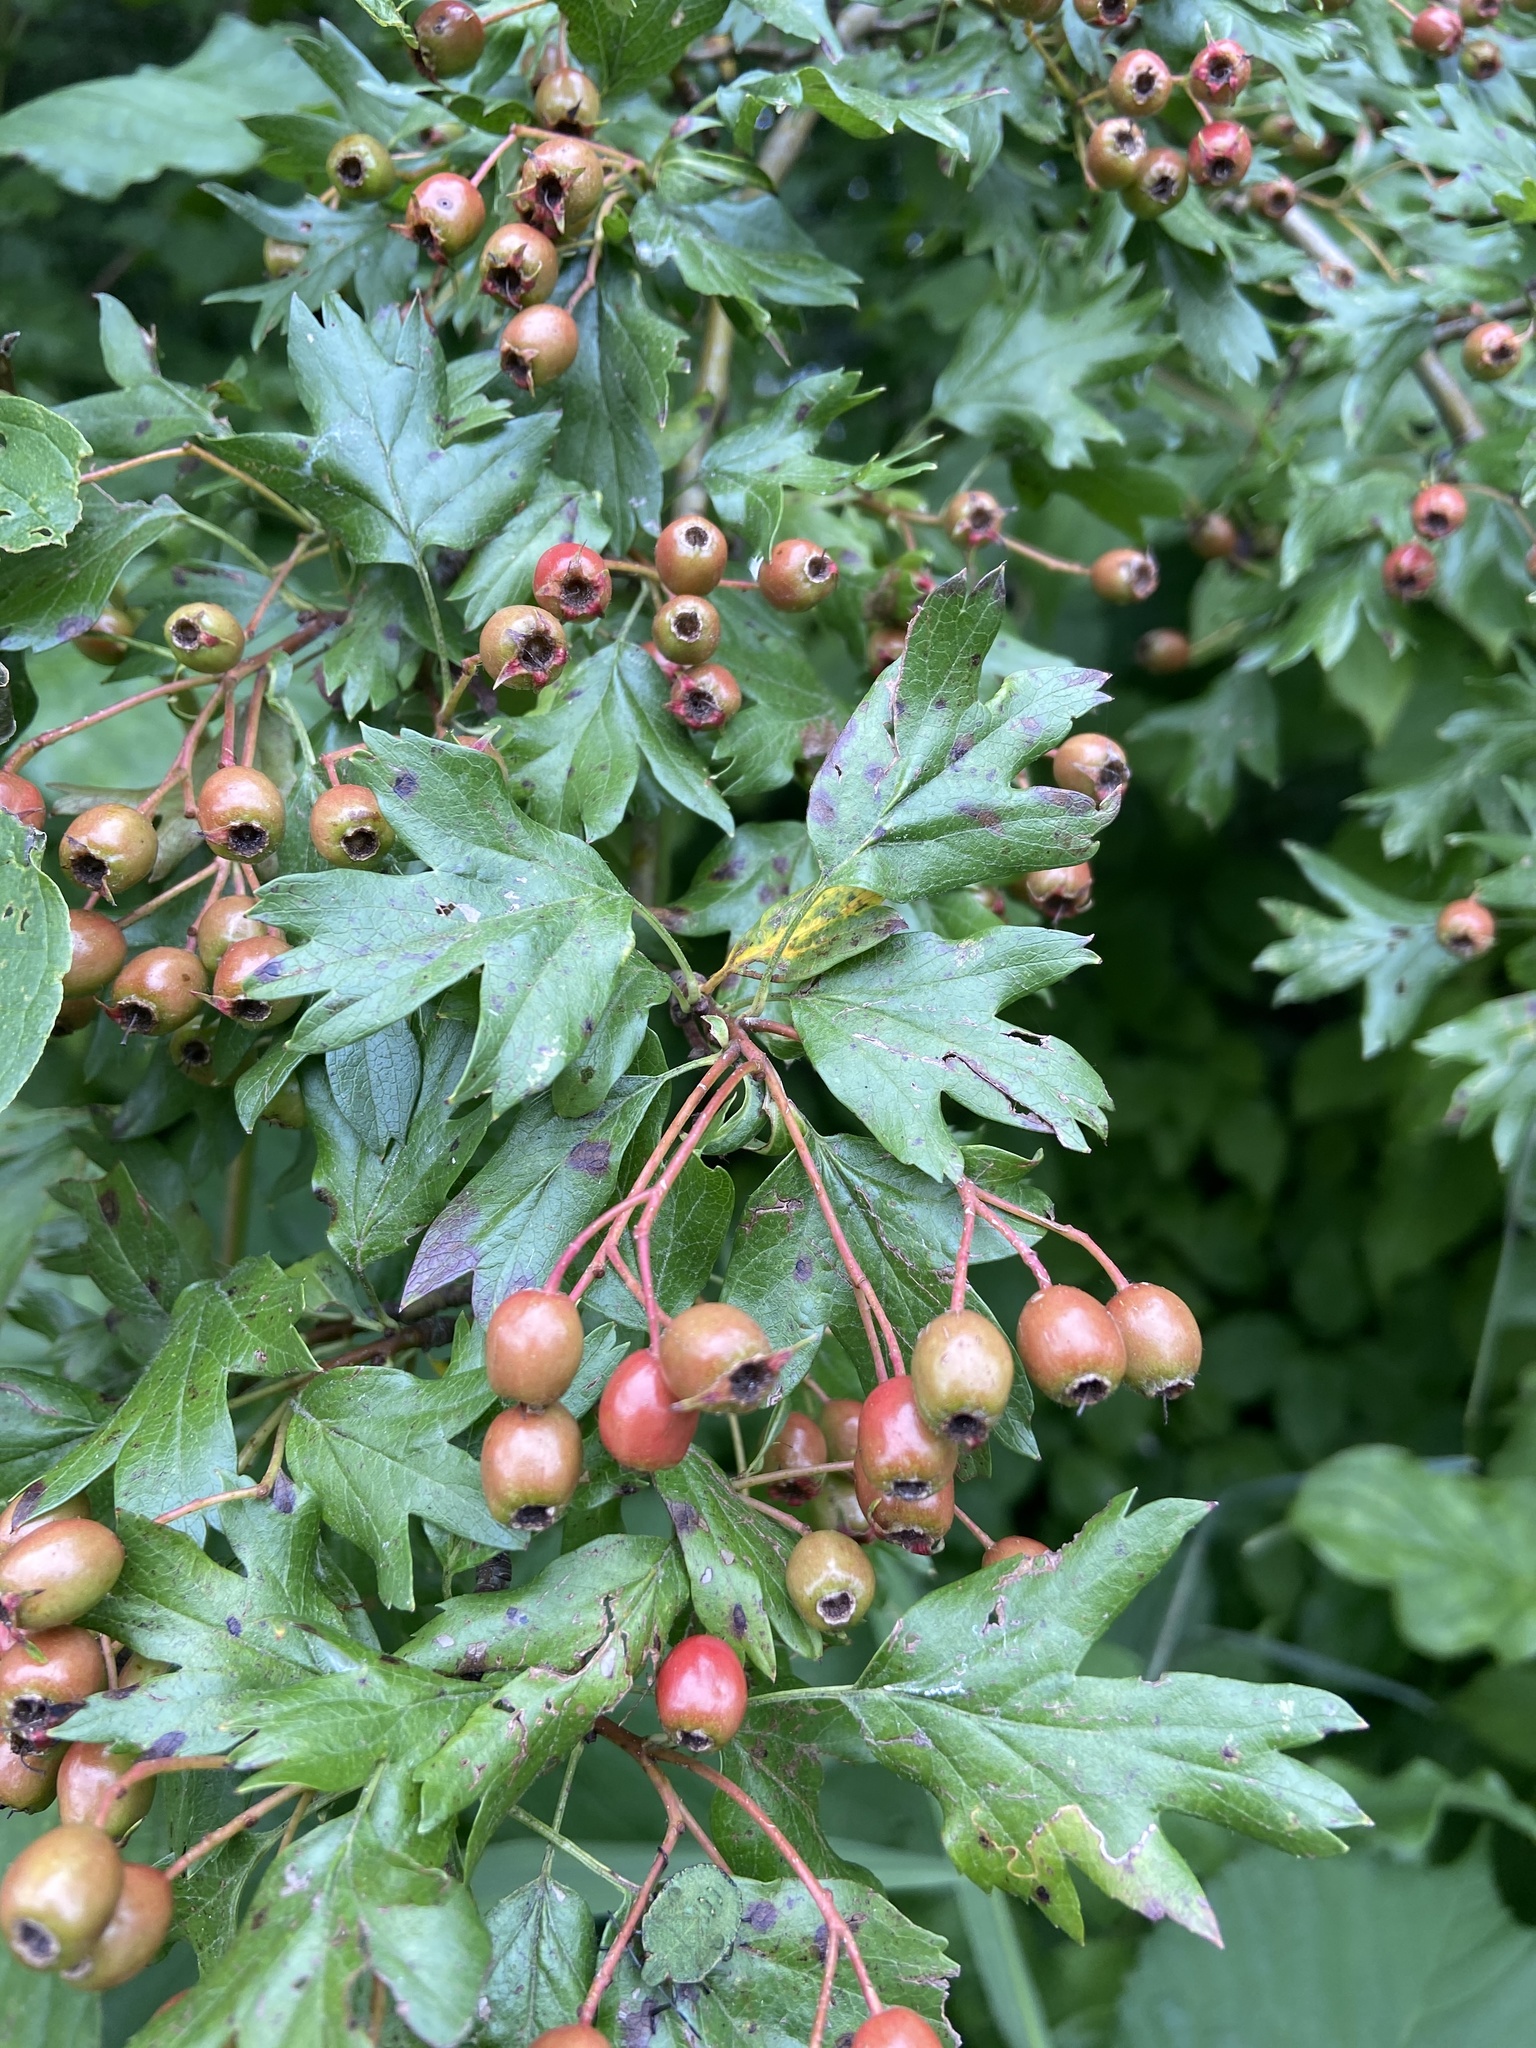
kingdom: Plantae
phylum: Tracheophyta
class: Magnoliopsida
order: Rosales
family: Rosaceae
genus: Crataegus
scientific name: Crataegus monogyna
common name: Hawthorn
